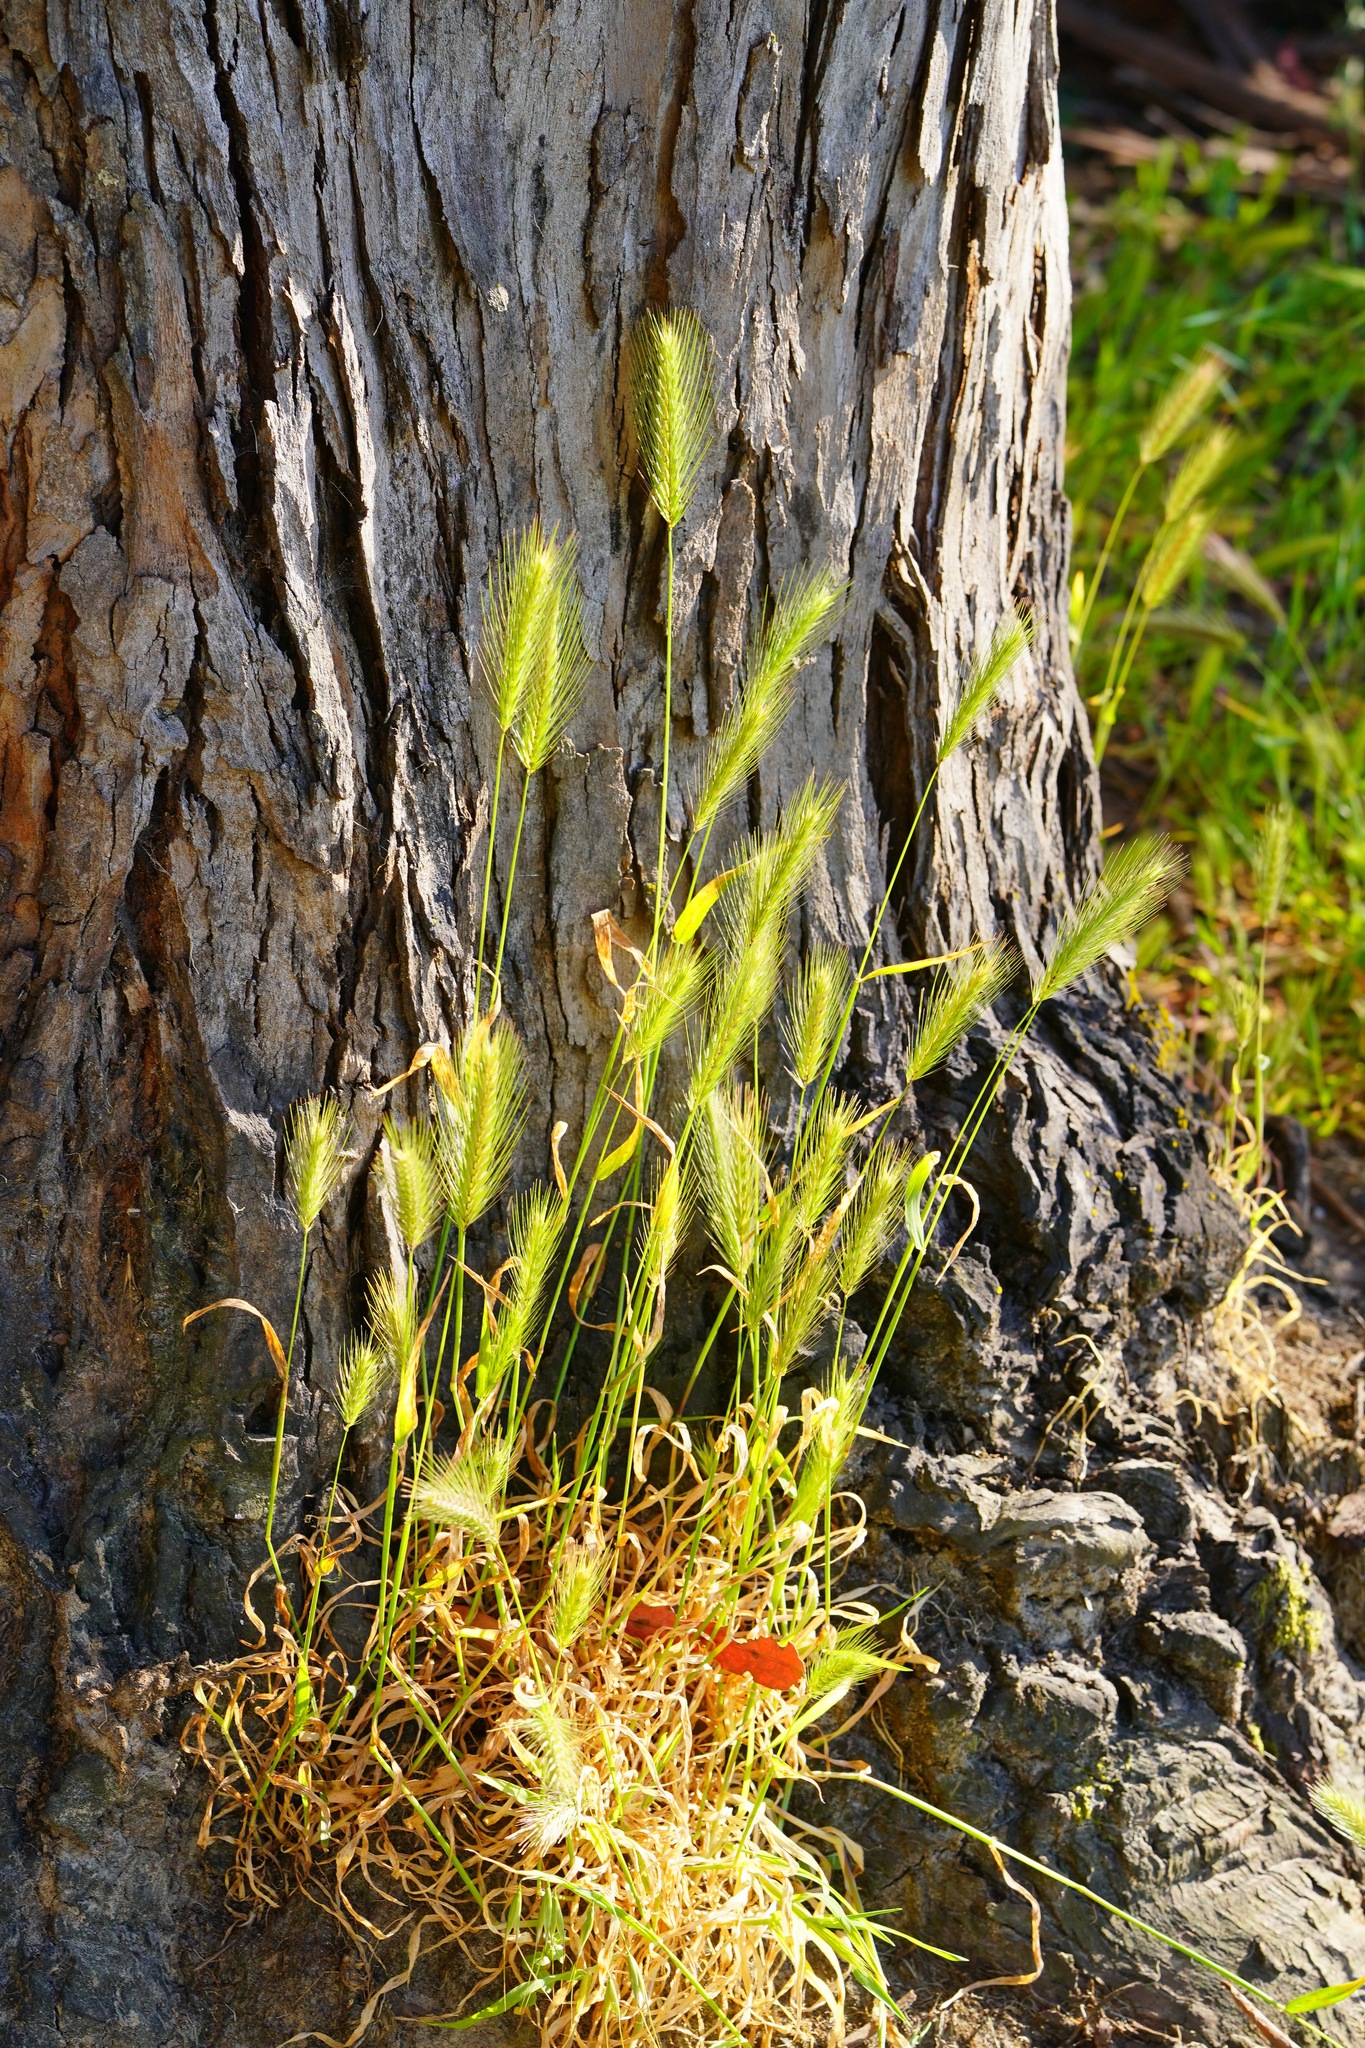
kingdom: Plantae
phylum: Tracheophyta
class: Liliopsida
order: Poales
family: Poaceae
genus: Hordeum
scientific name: Hordeum murinum
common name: Wall barley
